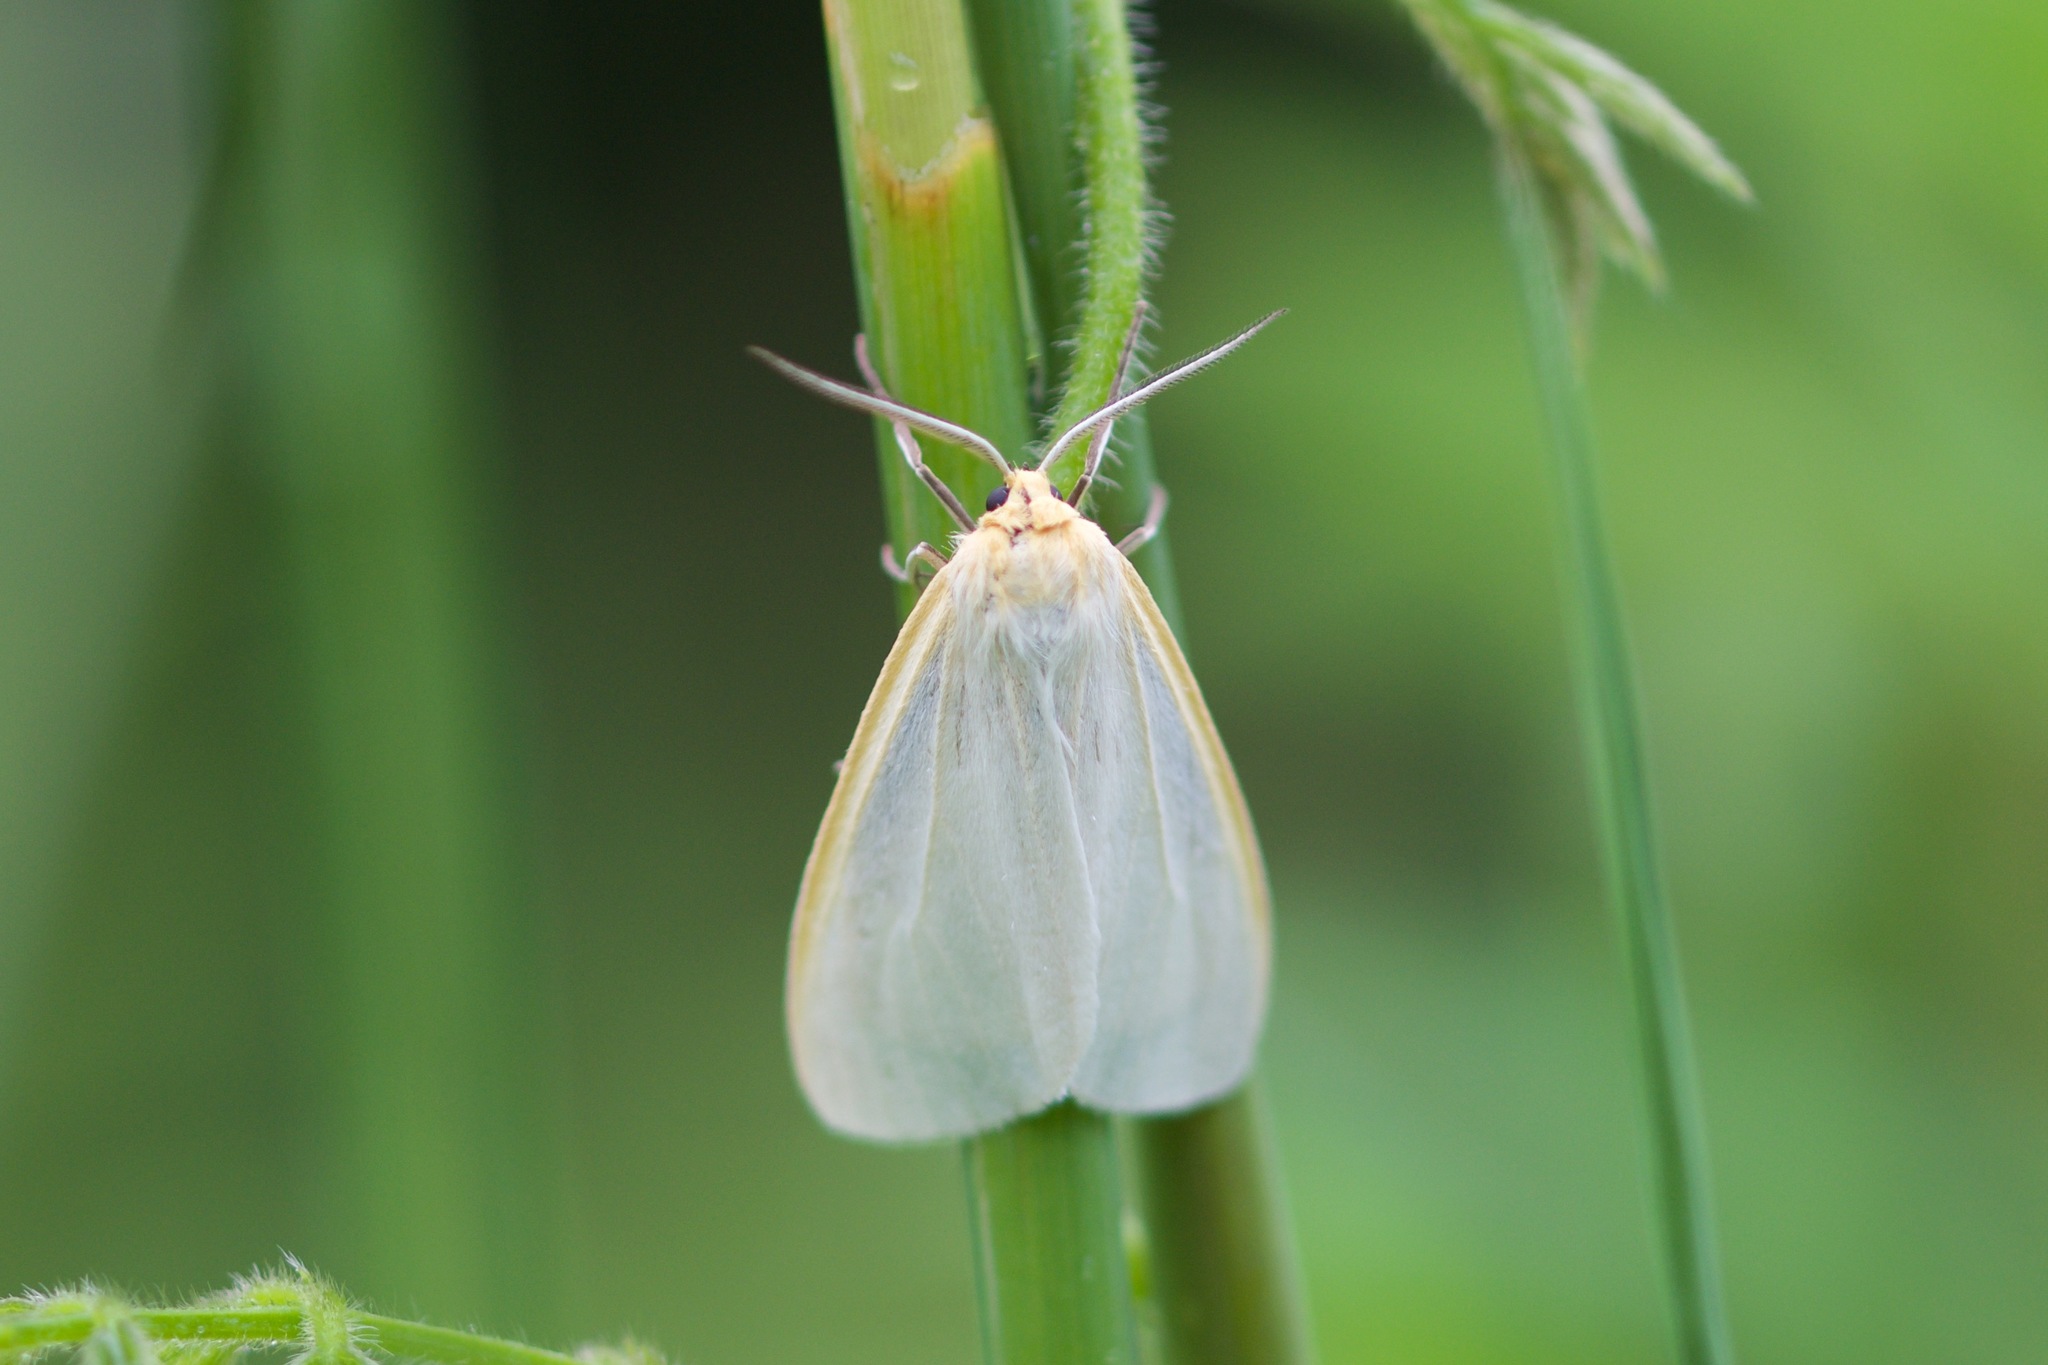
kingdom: Animalia
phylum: Arthropoda
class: Insecta
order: Lepidoptera
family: Erebidae
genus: Cycnia
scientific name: Cycnia tenera
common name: Delicate cycnia moth
